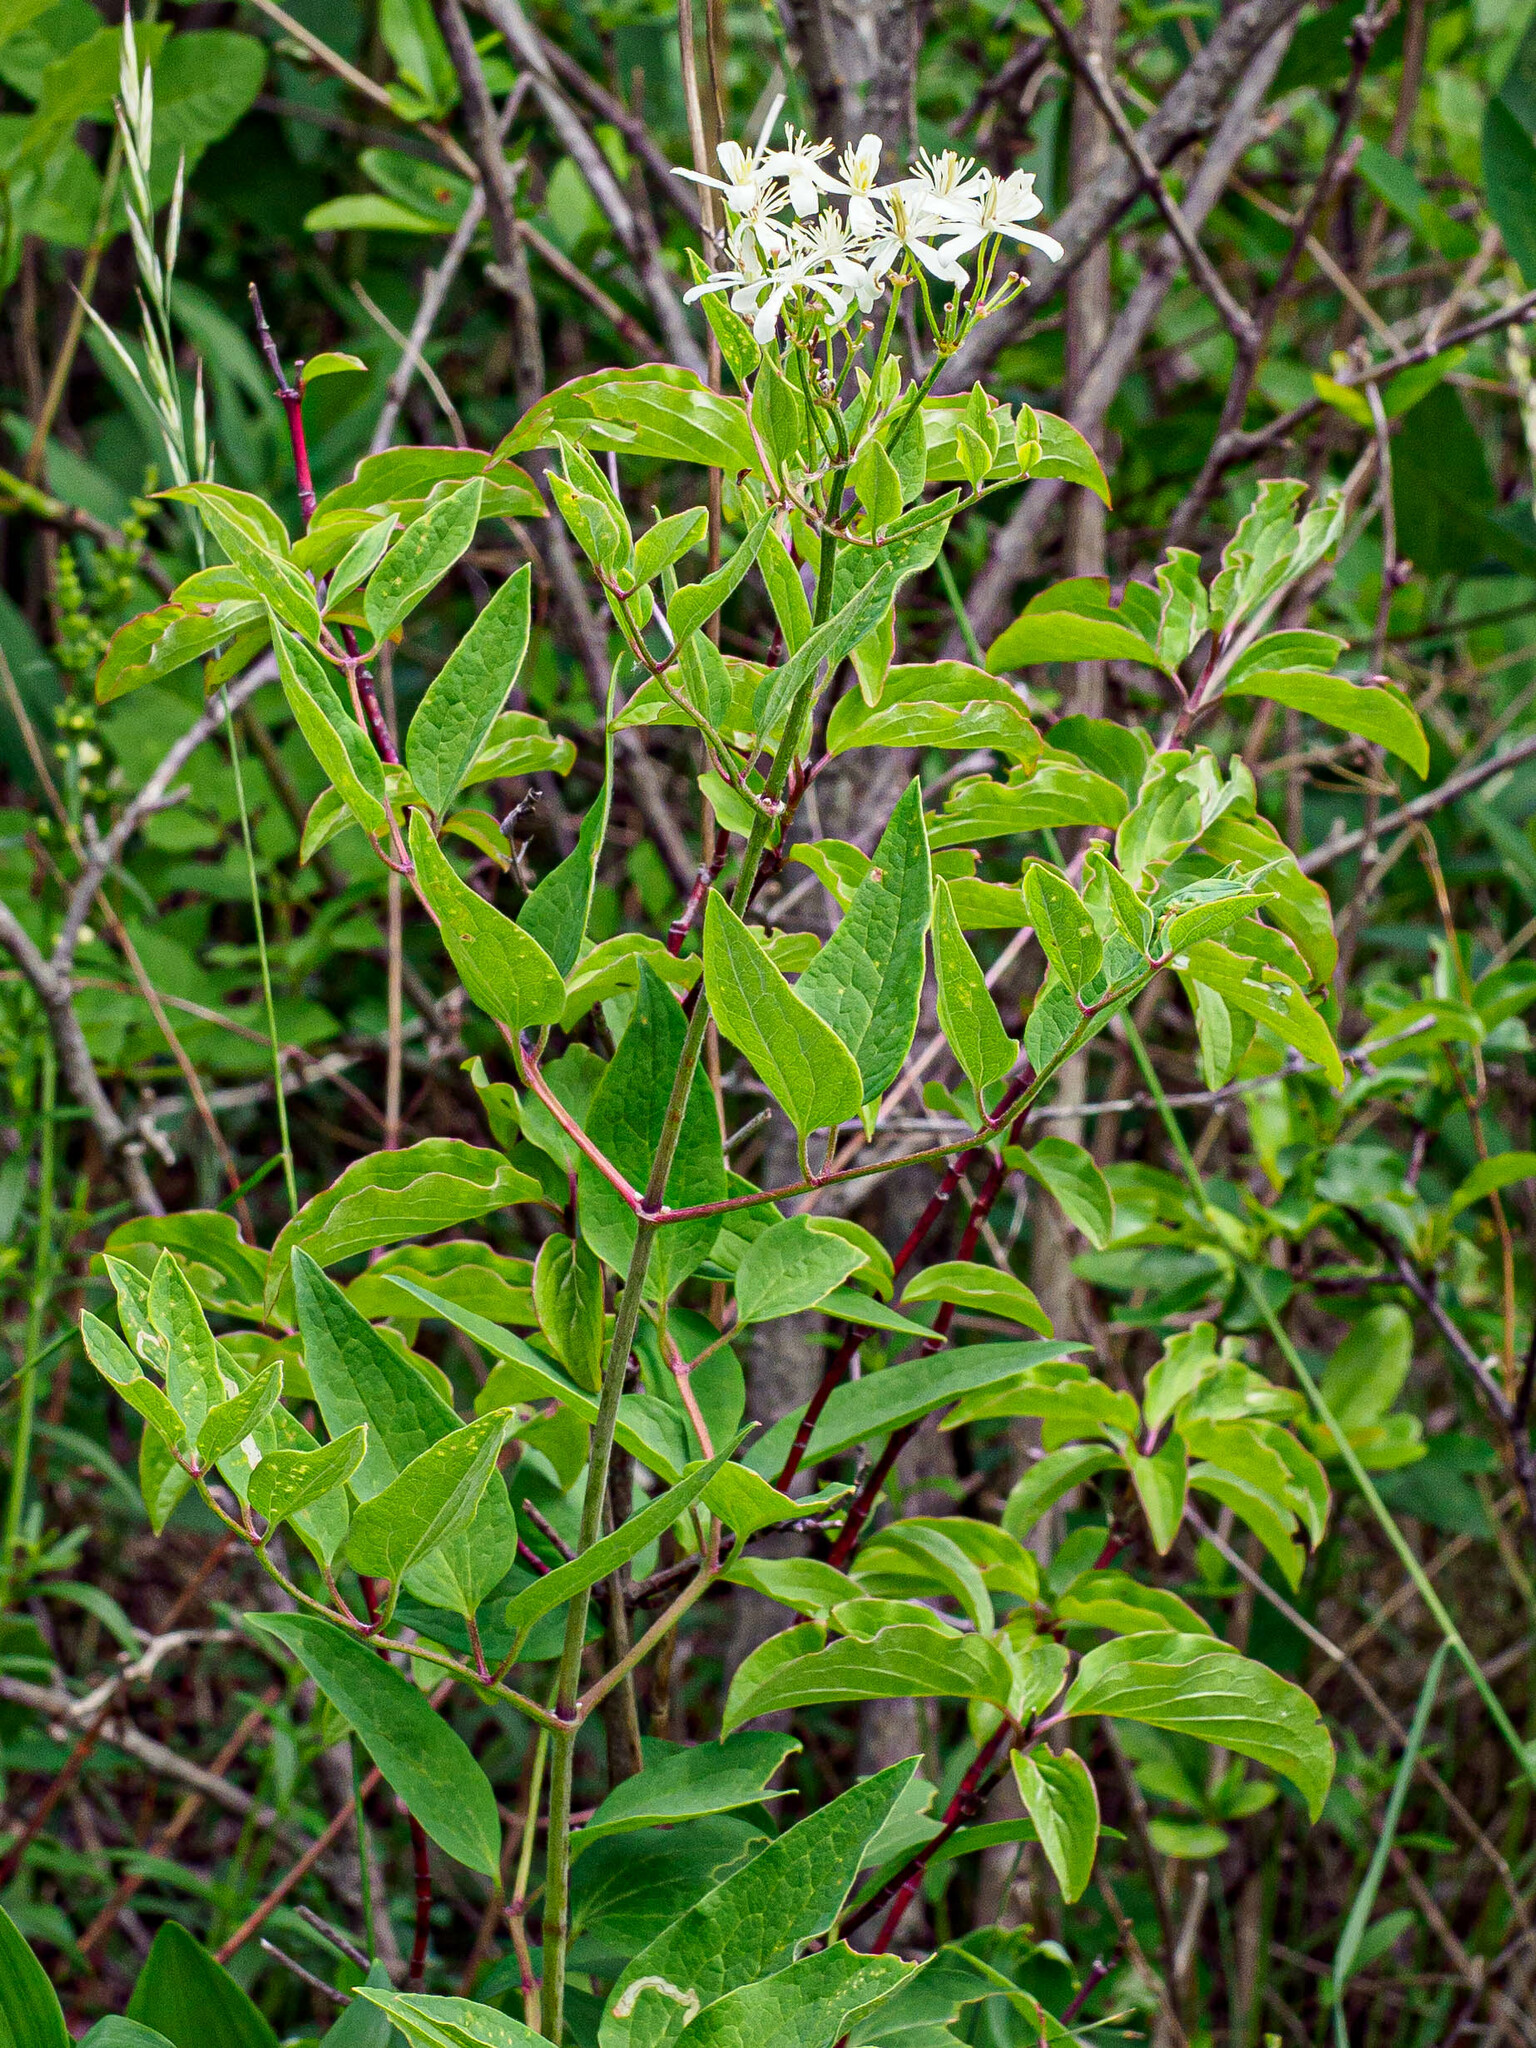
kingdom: Plantae
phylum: Tracheophyta
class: Magnoliopsida
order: Ranunculales
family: Ranunculaceae
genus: Clematis
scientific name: Clematis recta
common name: Ground clematis
